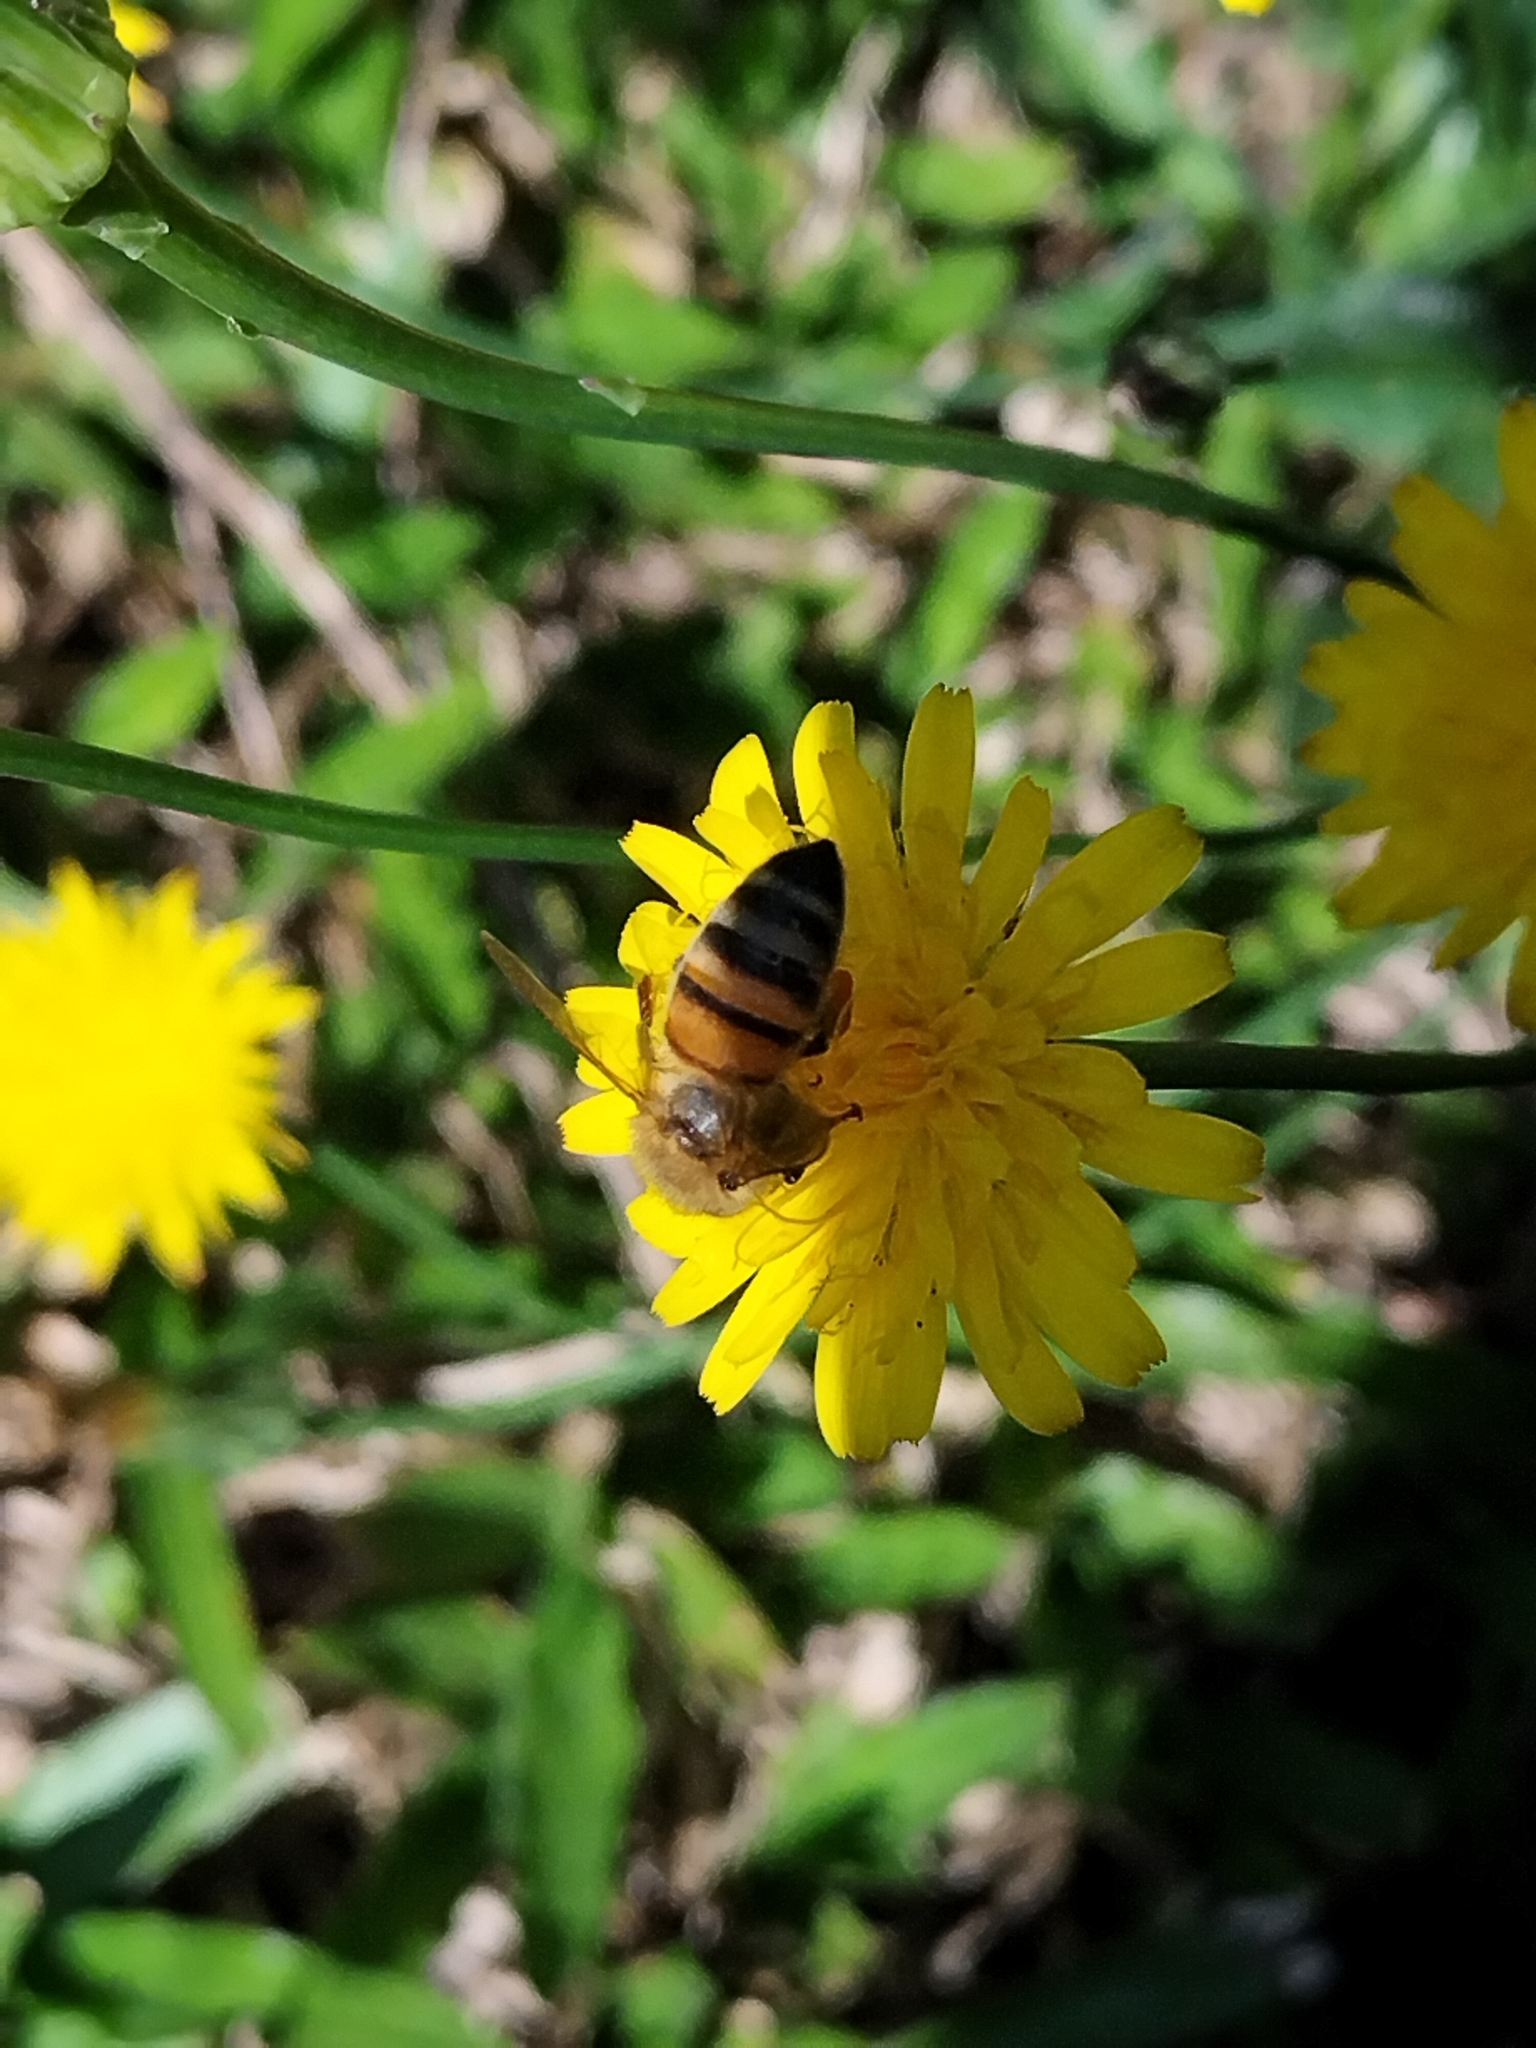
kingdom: Animalia
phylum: Arthropoda
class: Insecta
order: Hymenoptera
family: Apidae
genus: Apis
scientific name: Apis mellifera
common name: Honey bee
